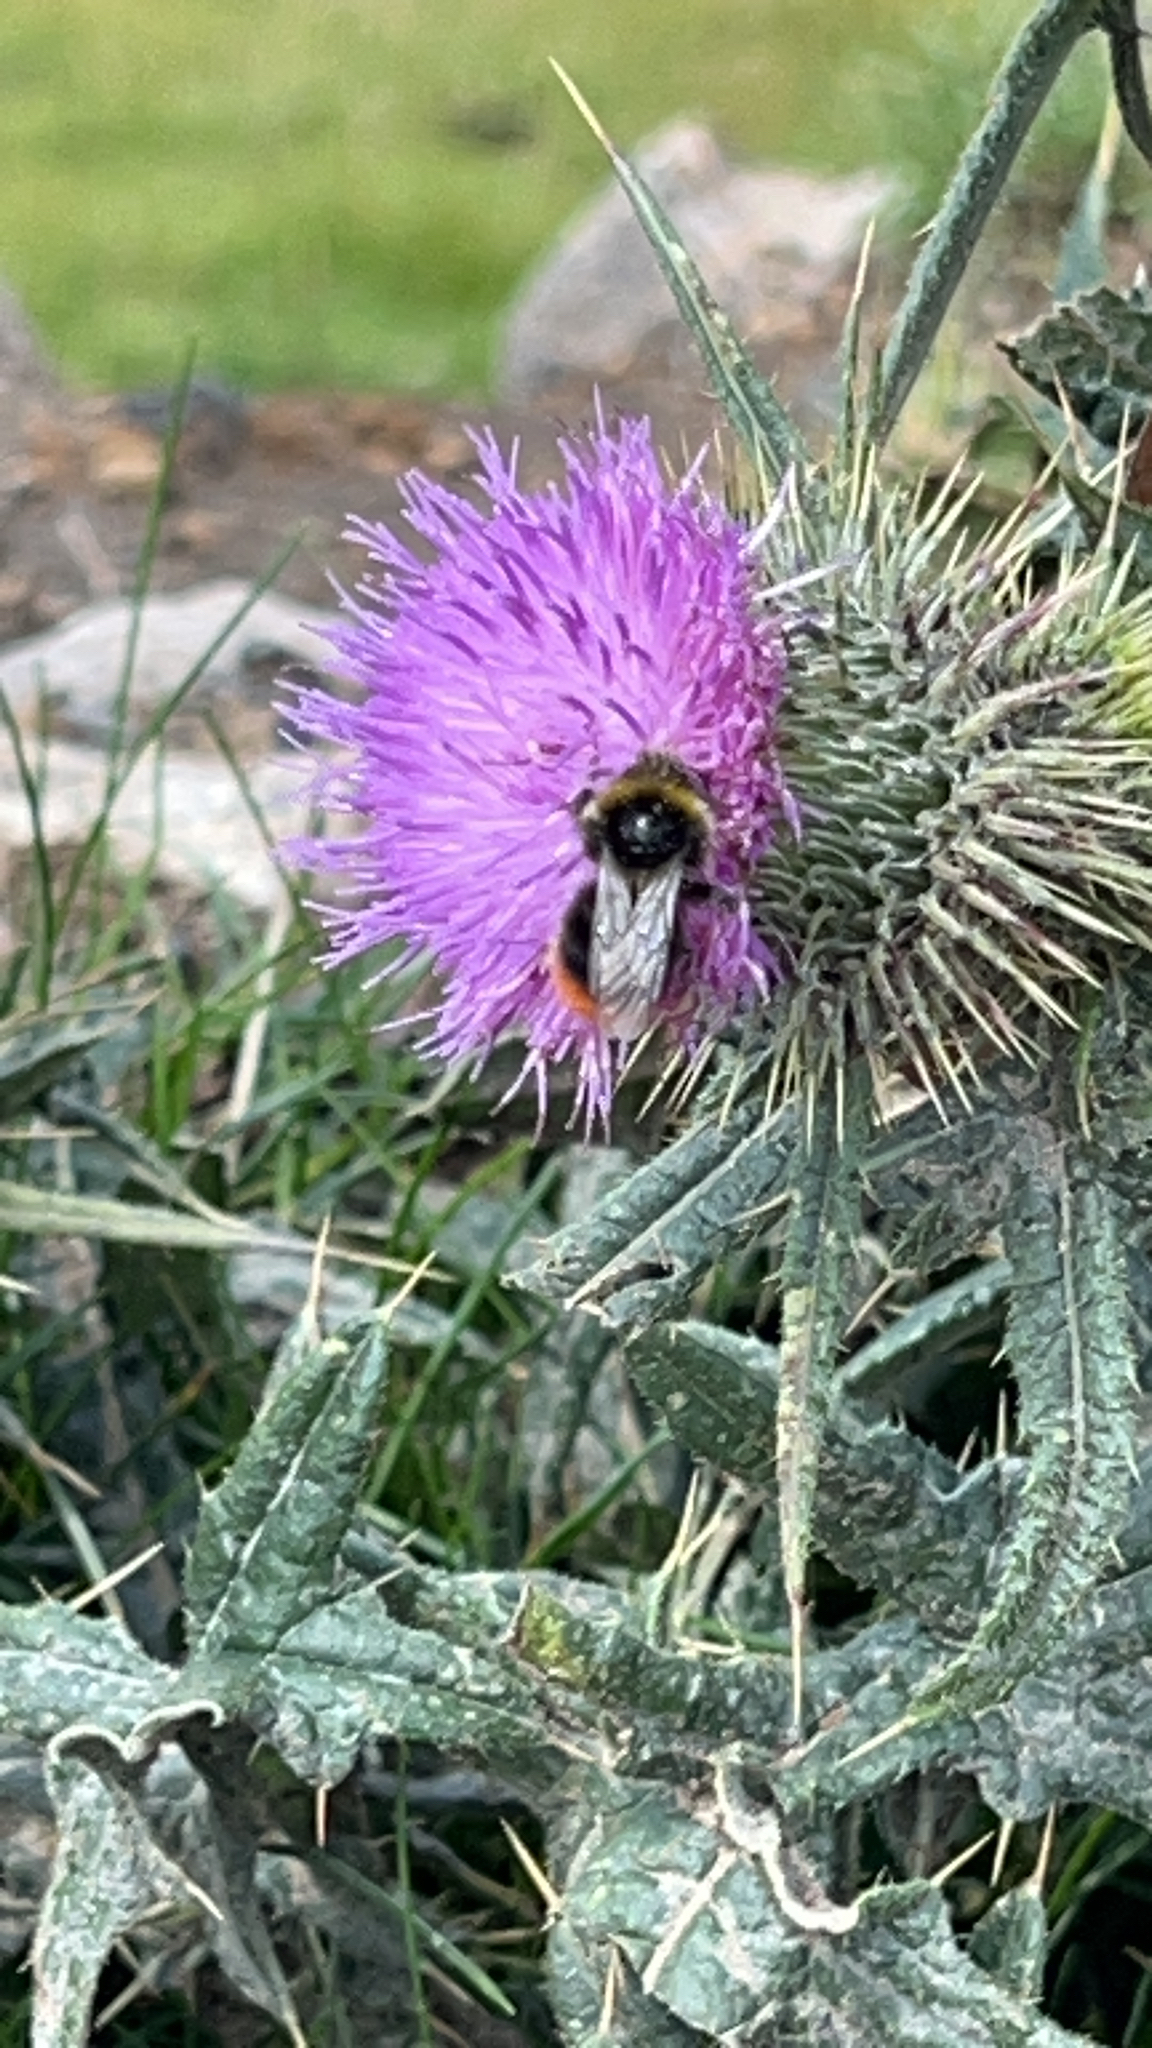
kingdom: Animalia
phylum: Arthropoda
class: Insecta
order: Hymenoptera
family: Apidae
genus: Bombus
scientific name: Bombus lapidarius
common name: Large red-tailed humble-bee
